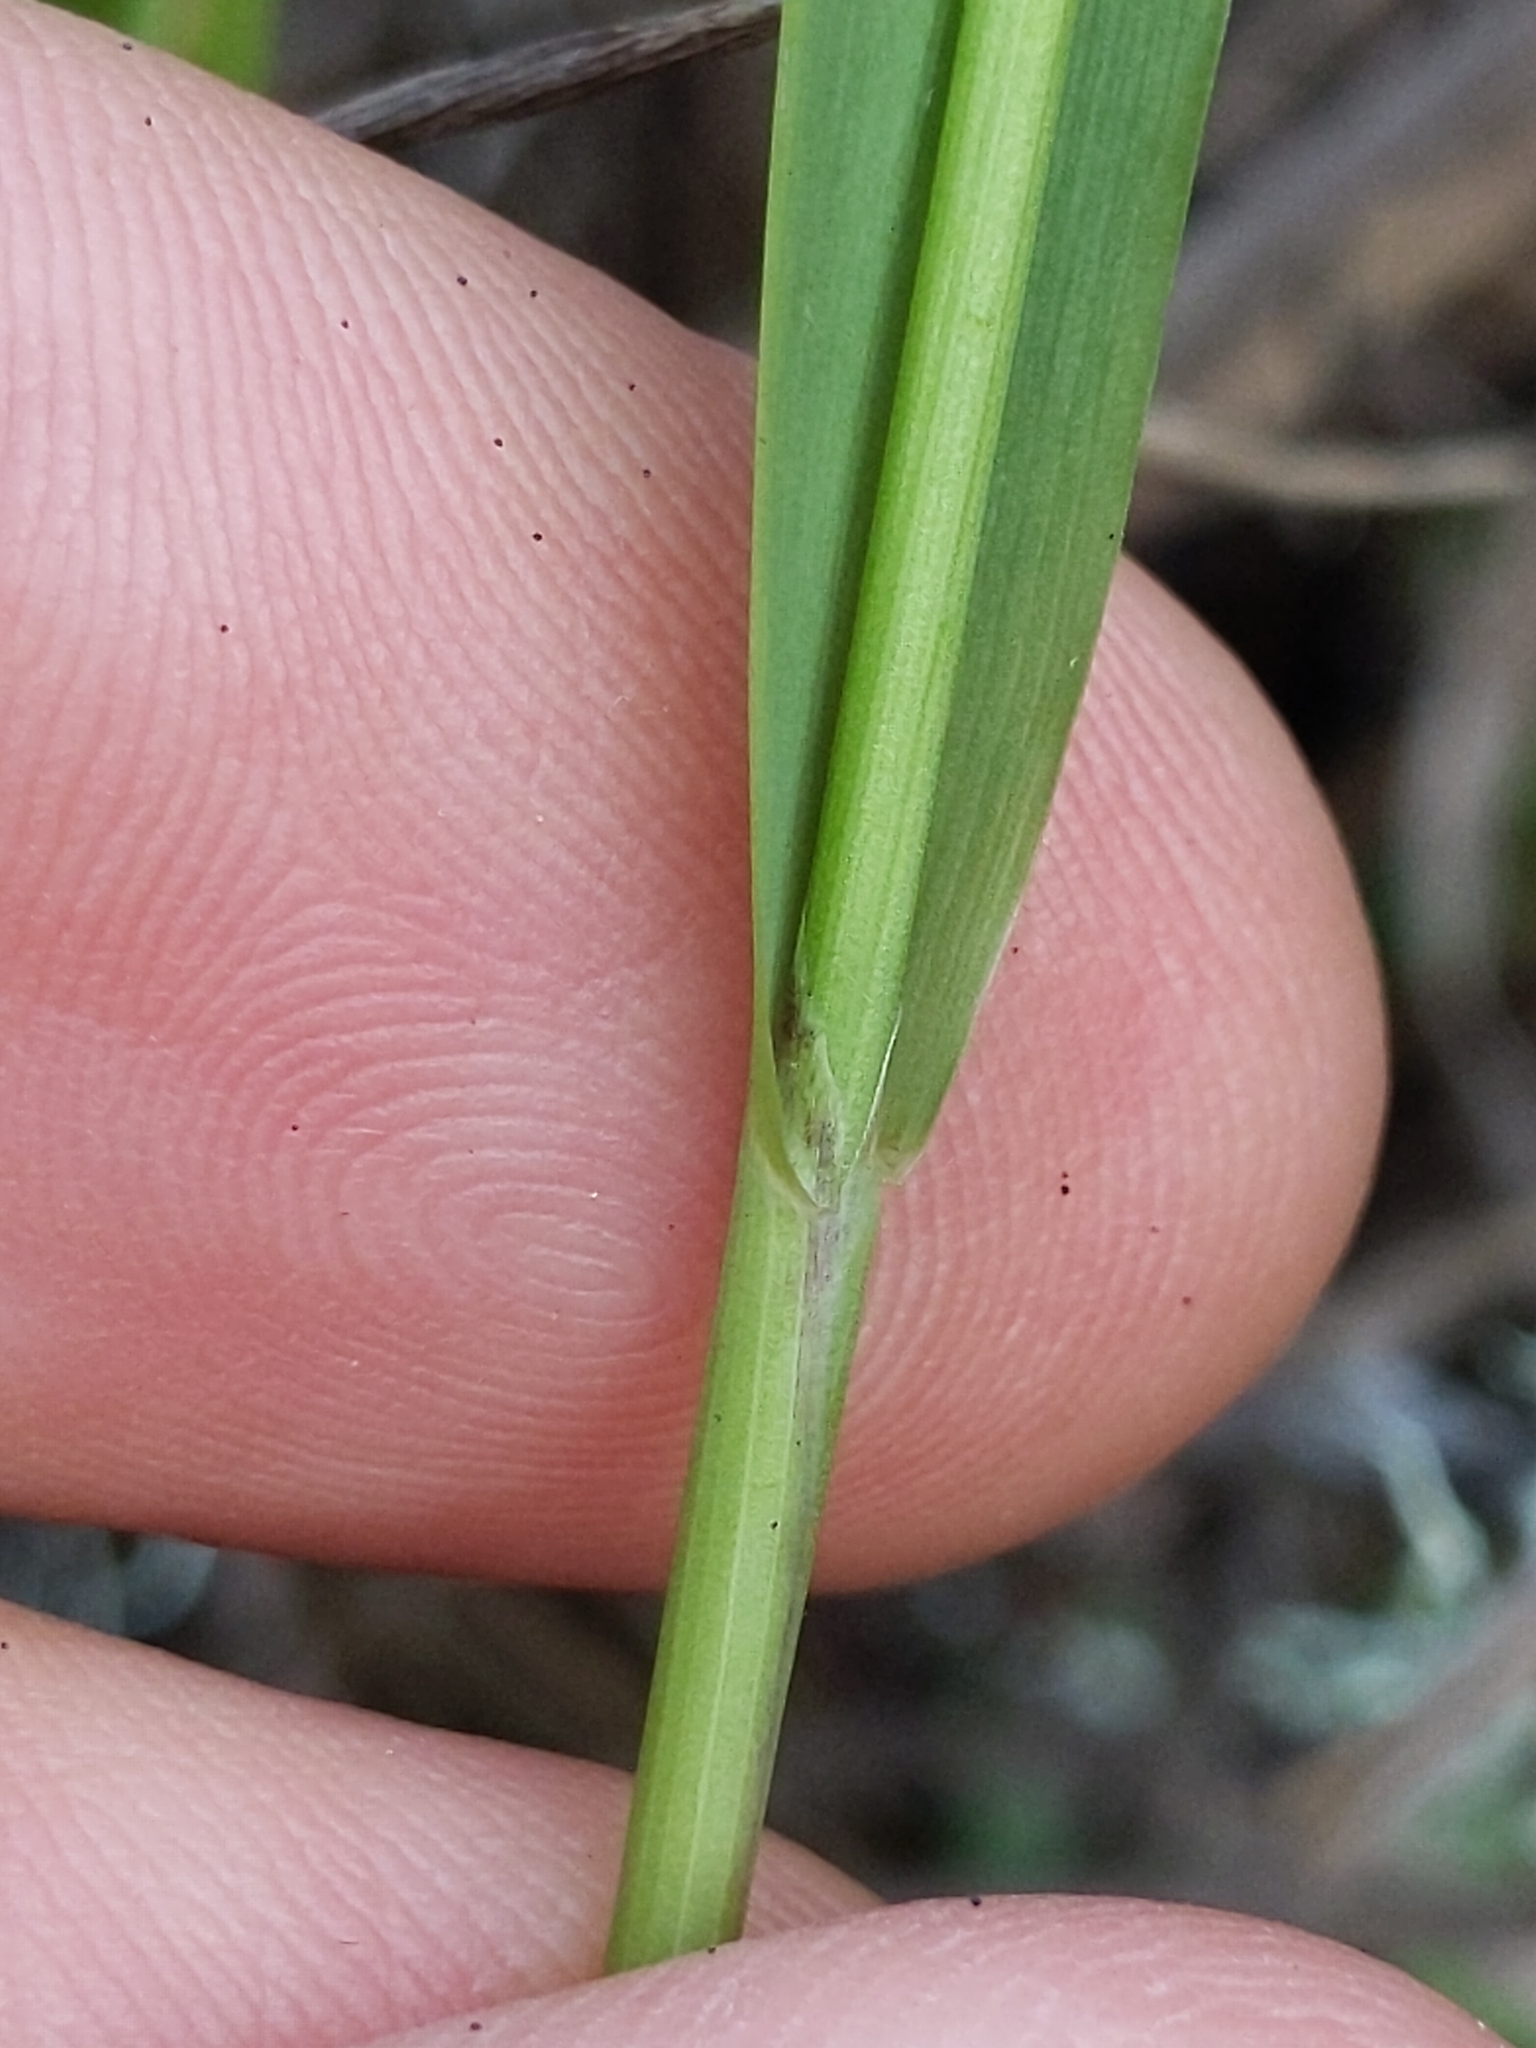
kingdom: Plantae
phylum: Tracheophyta
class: Liliopsida
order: Poales
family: Poaceae
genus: Anthoxanthum
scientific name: Anthoxanthum occidentale
